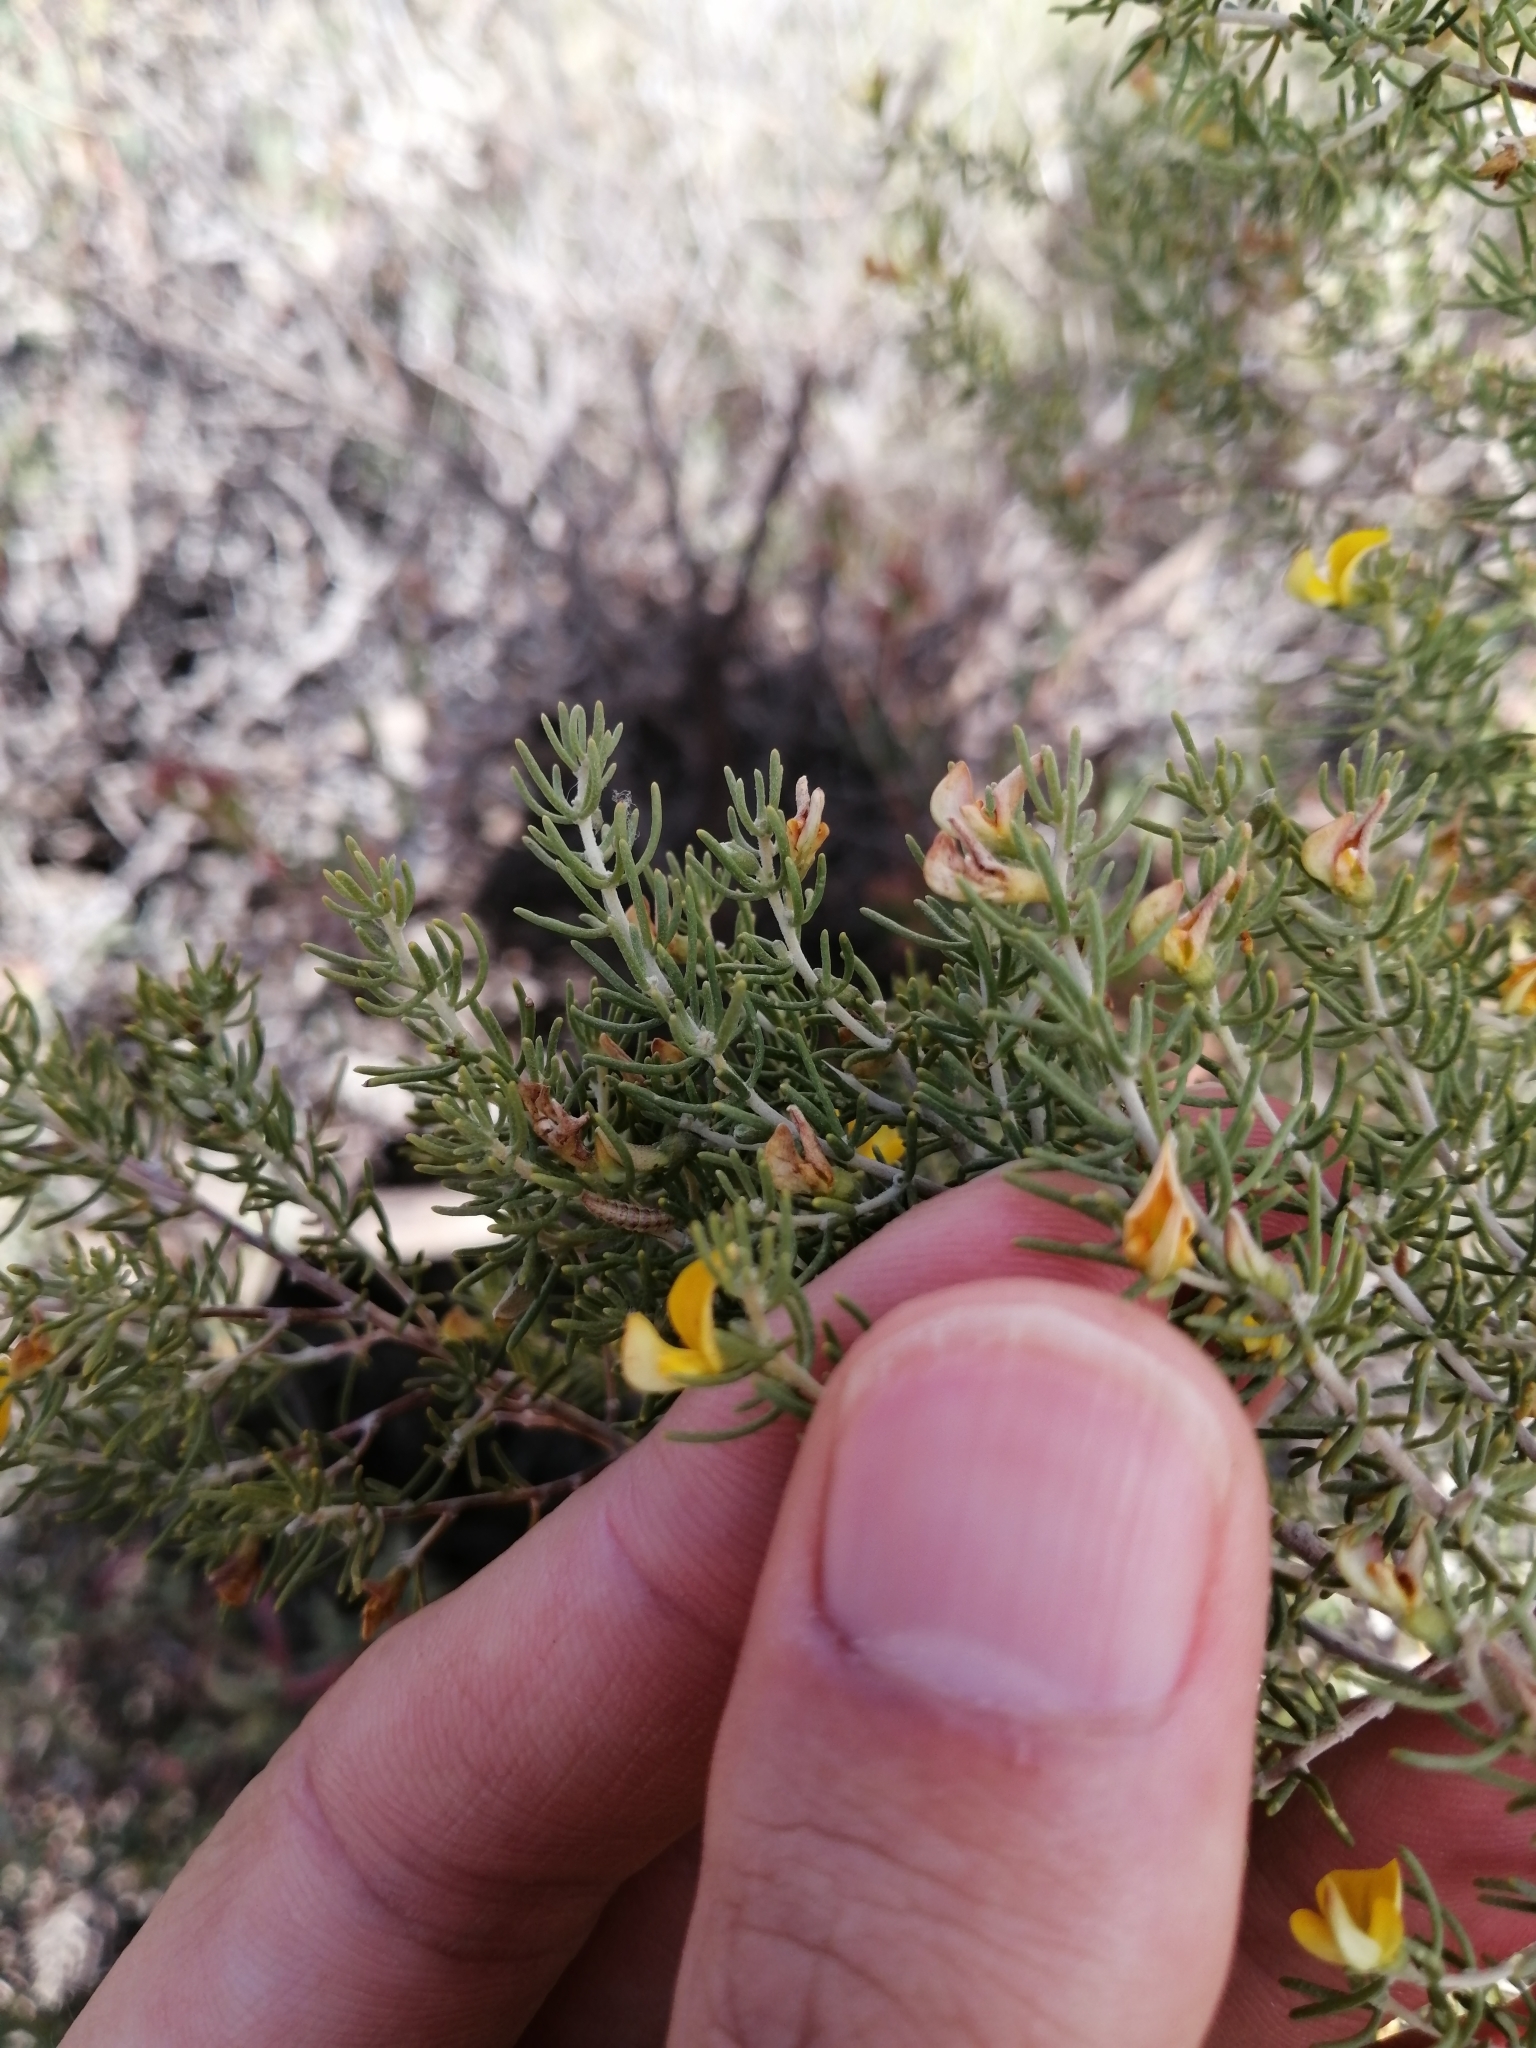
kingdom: Plantae
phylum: Tracheophyta
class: Magnoliopsida
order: Fabales
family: Fabaceae
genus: Aspalathus
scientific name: Aspalathus lactea
